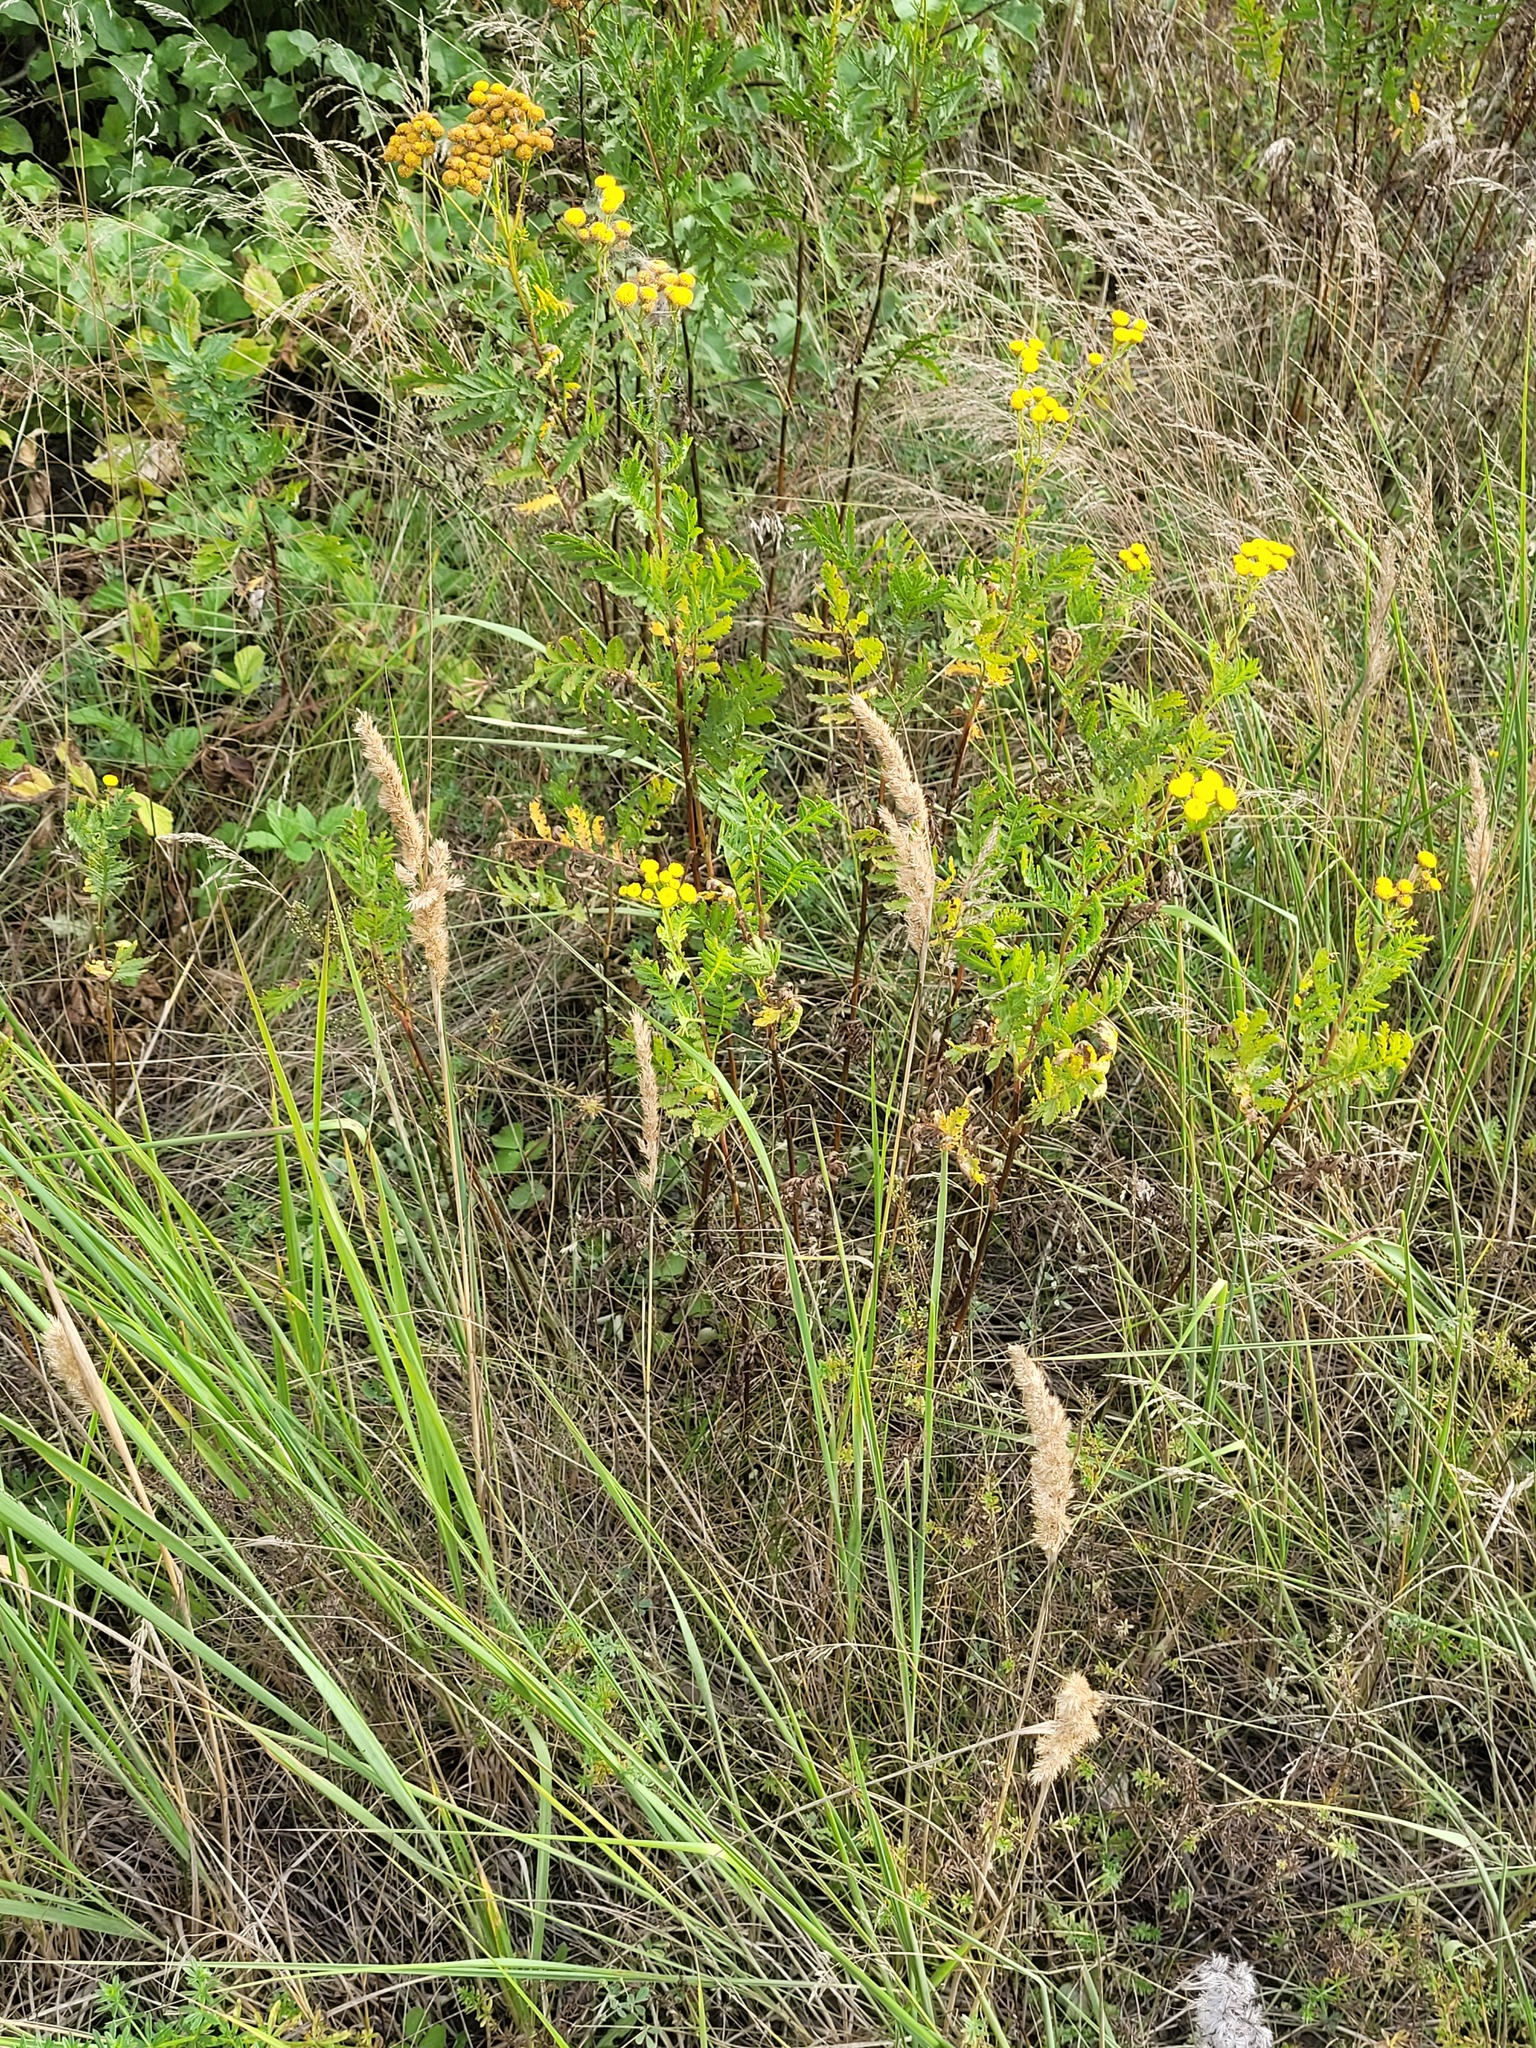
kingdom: Plantae
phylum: Tracheophyta
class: Liliopsida
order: Poales
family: Poaceae
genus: Calamagrostis
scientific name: Calamagrostis epigejos
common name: Wood small-reed
